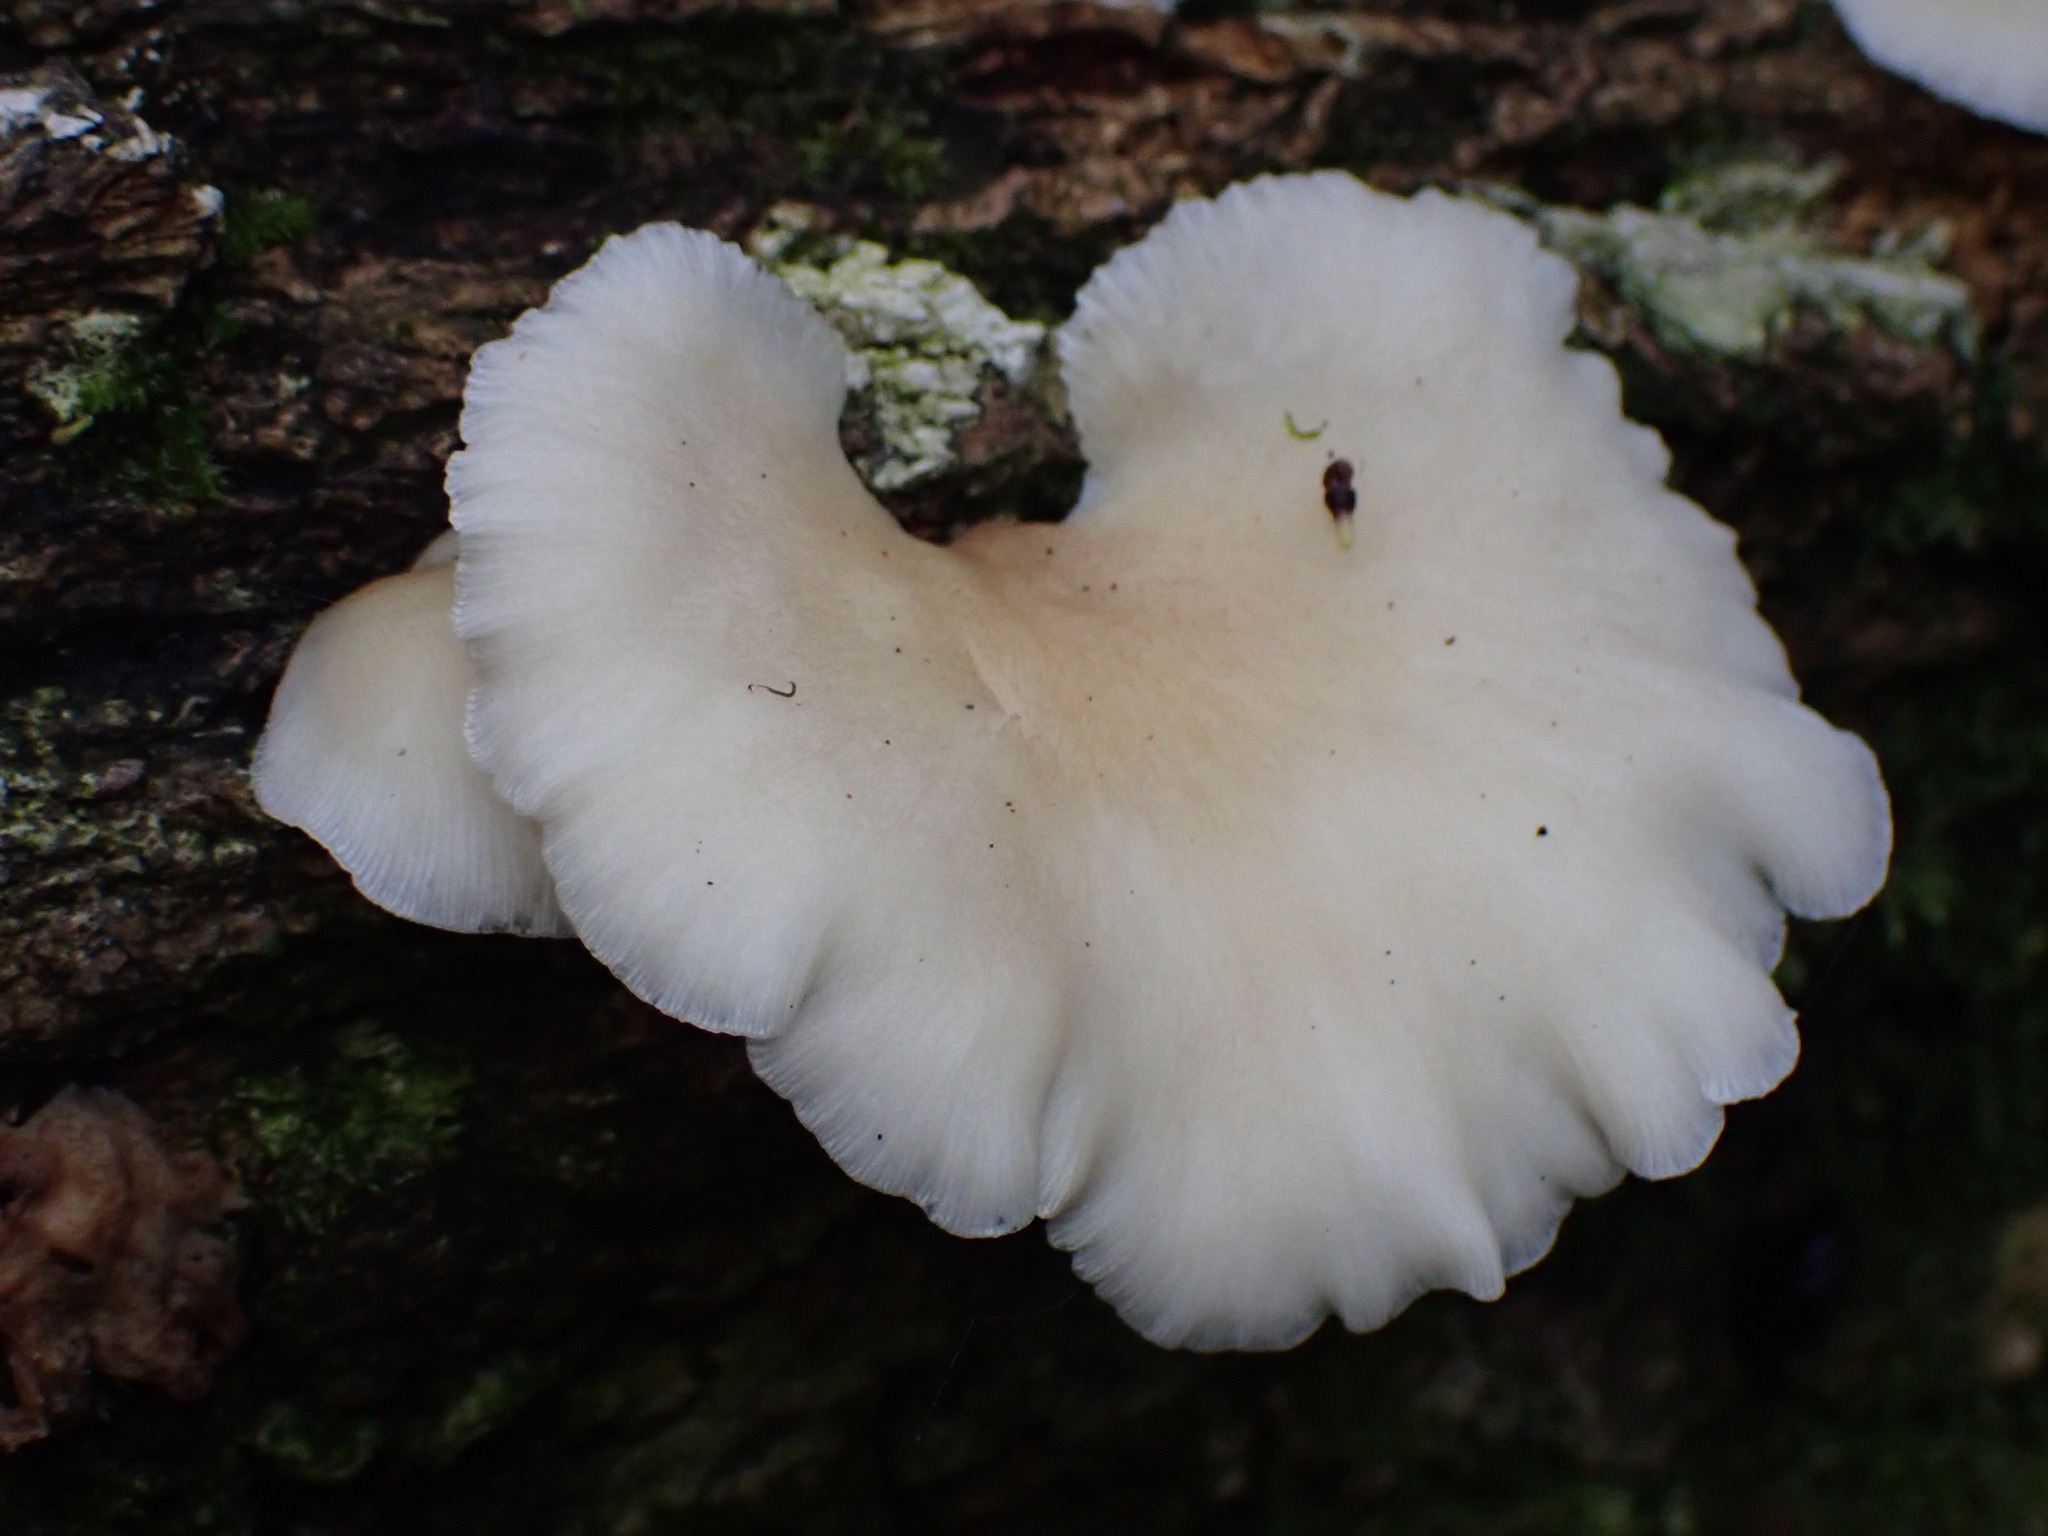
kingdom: Fungi
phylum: Basidiomycota
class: Agaricomycetes
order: Agaricales
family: Crepidotaceae
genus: Crepidotus
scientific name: Crepidotus mollis
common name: Peeling oysterling
